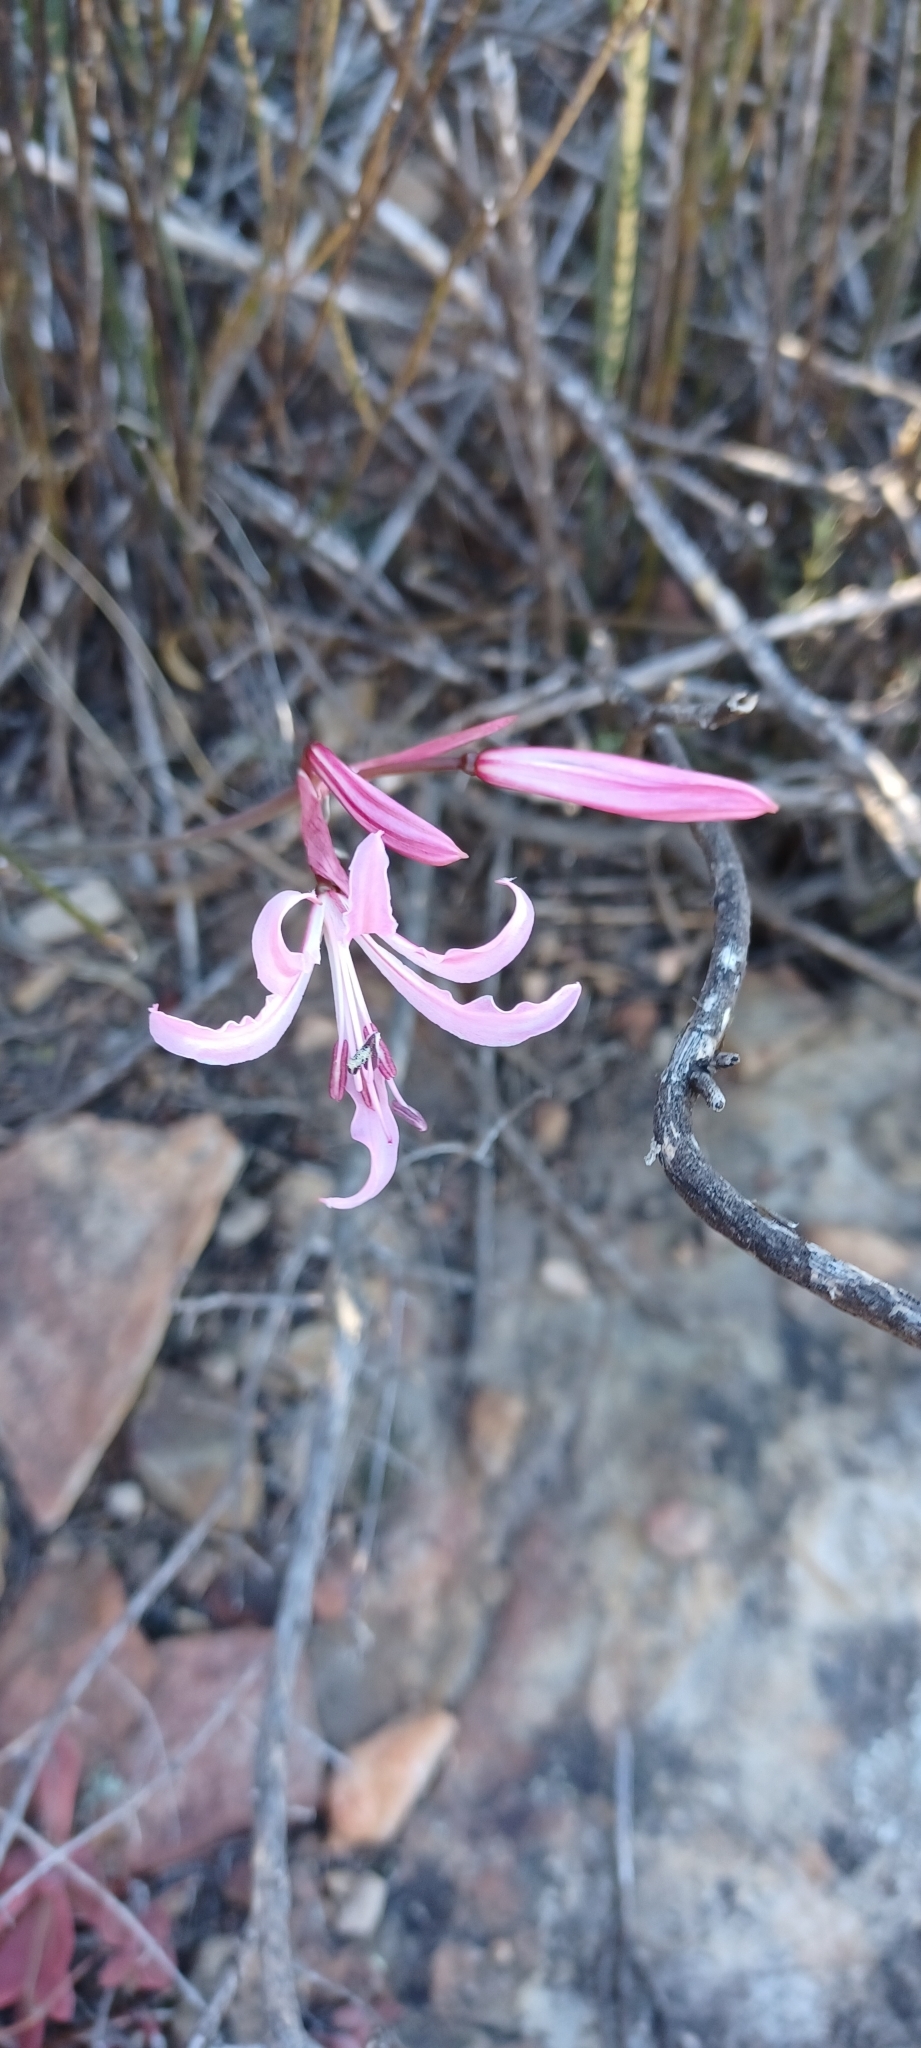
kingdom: Plantae
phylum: Tracheophyta
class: Liliopsida
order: Asparagales
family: Amaryllidaceae
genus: Nerine
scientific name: Nerine humilis
